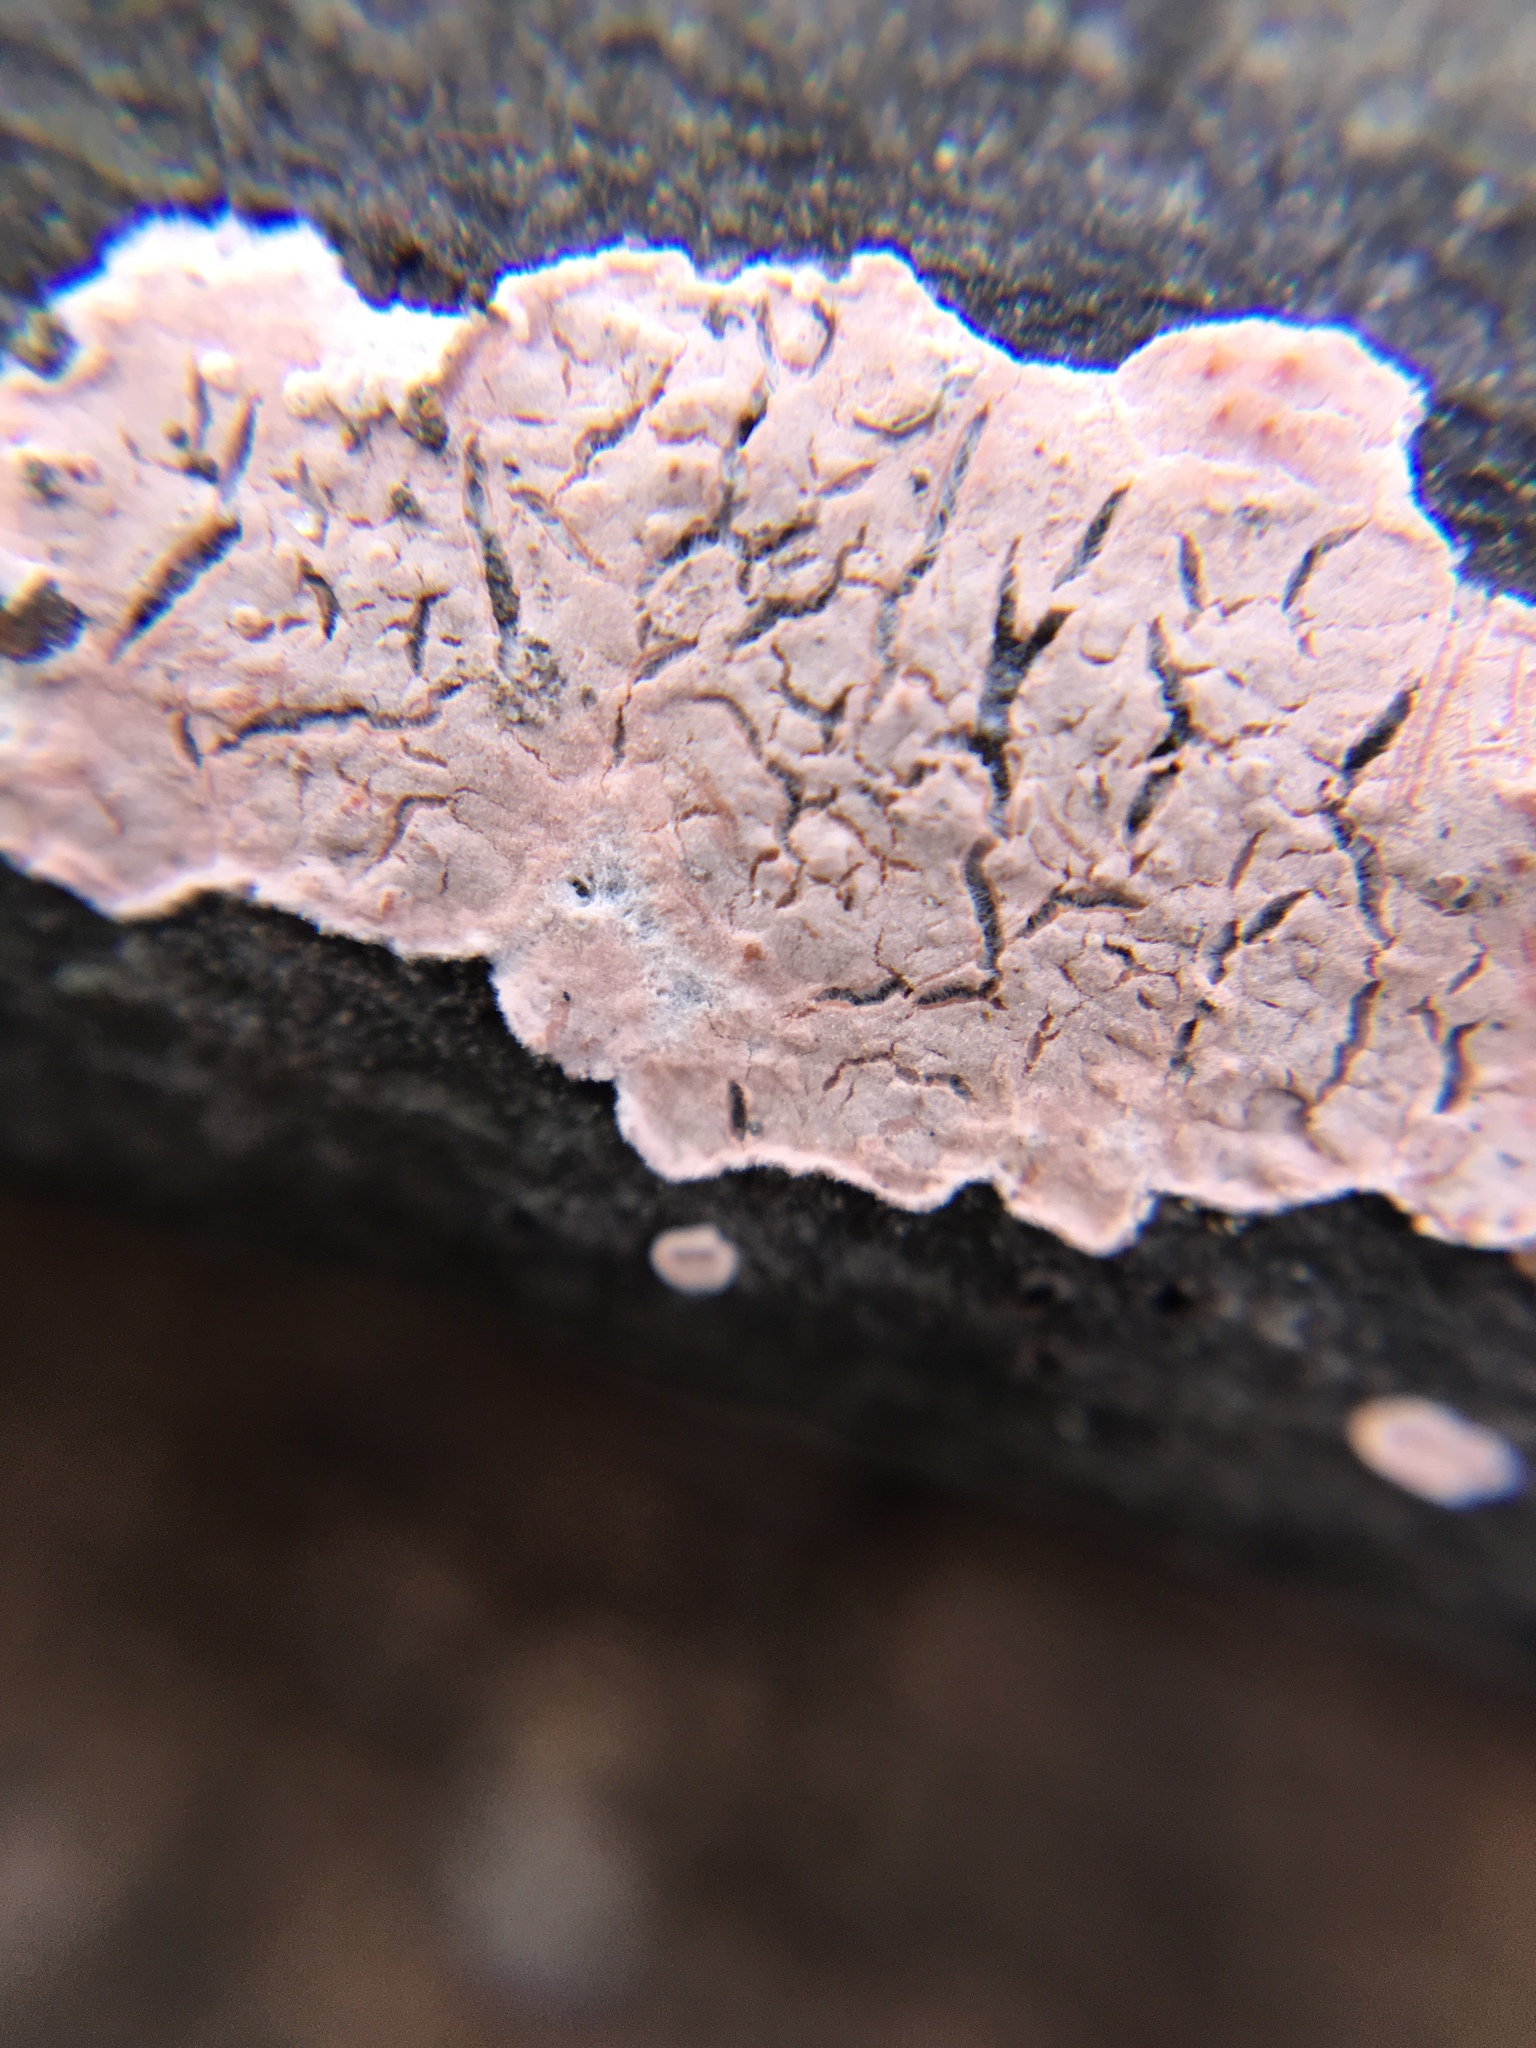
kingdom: Fungi
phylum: Basidiomycota
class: Agaricomycetes
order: Corticiales
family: Corticiaceae
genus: Corticium
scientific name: Corticium roseum
